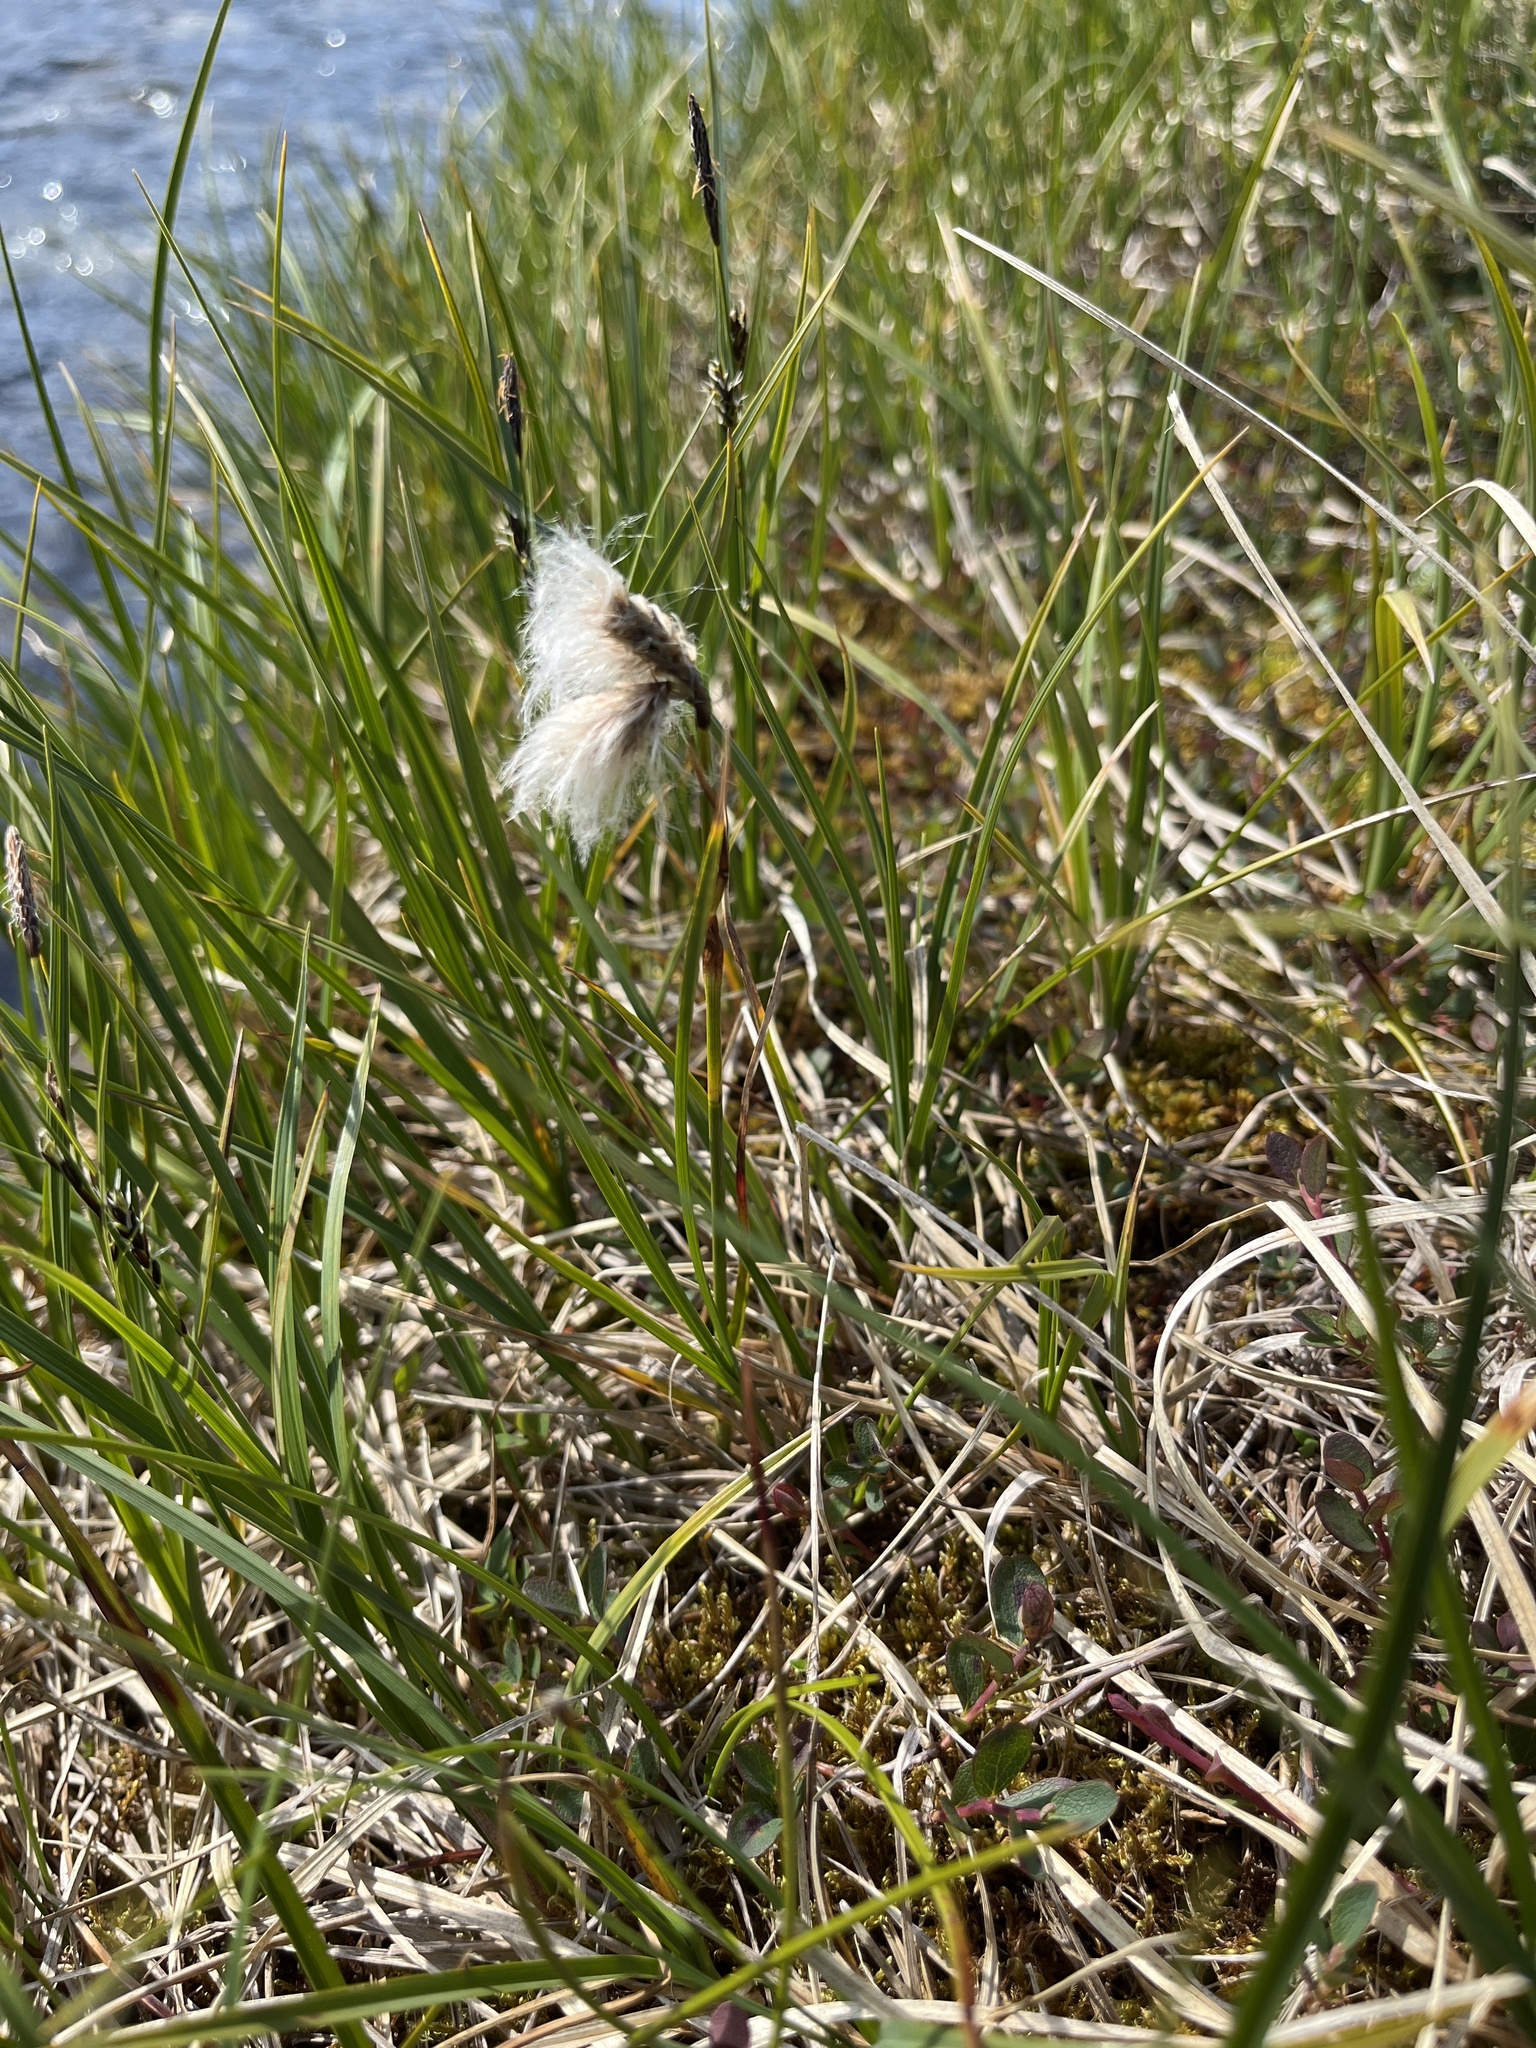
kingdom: Plantae
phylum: Tracheophyta
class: Liliopsida
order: Poales
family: Cyperaceae
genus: Eriophorum
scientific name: Eriophorum angustifolium
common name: Common cottongrass
